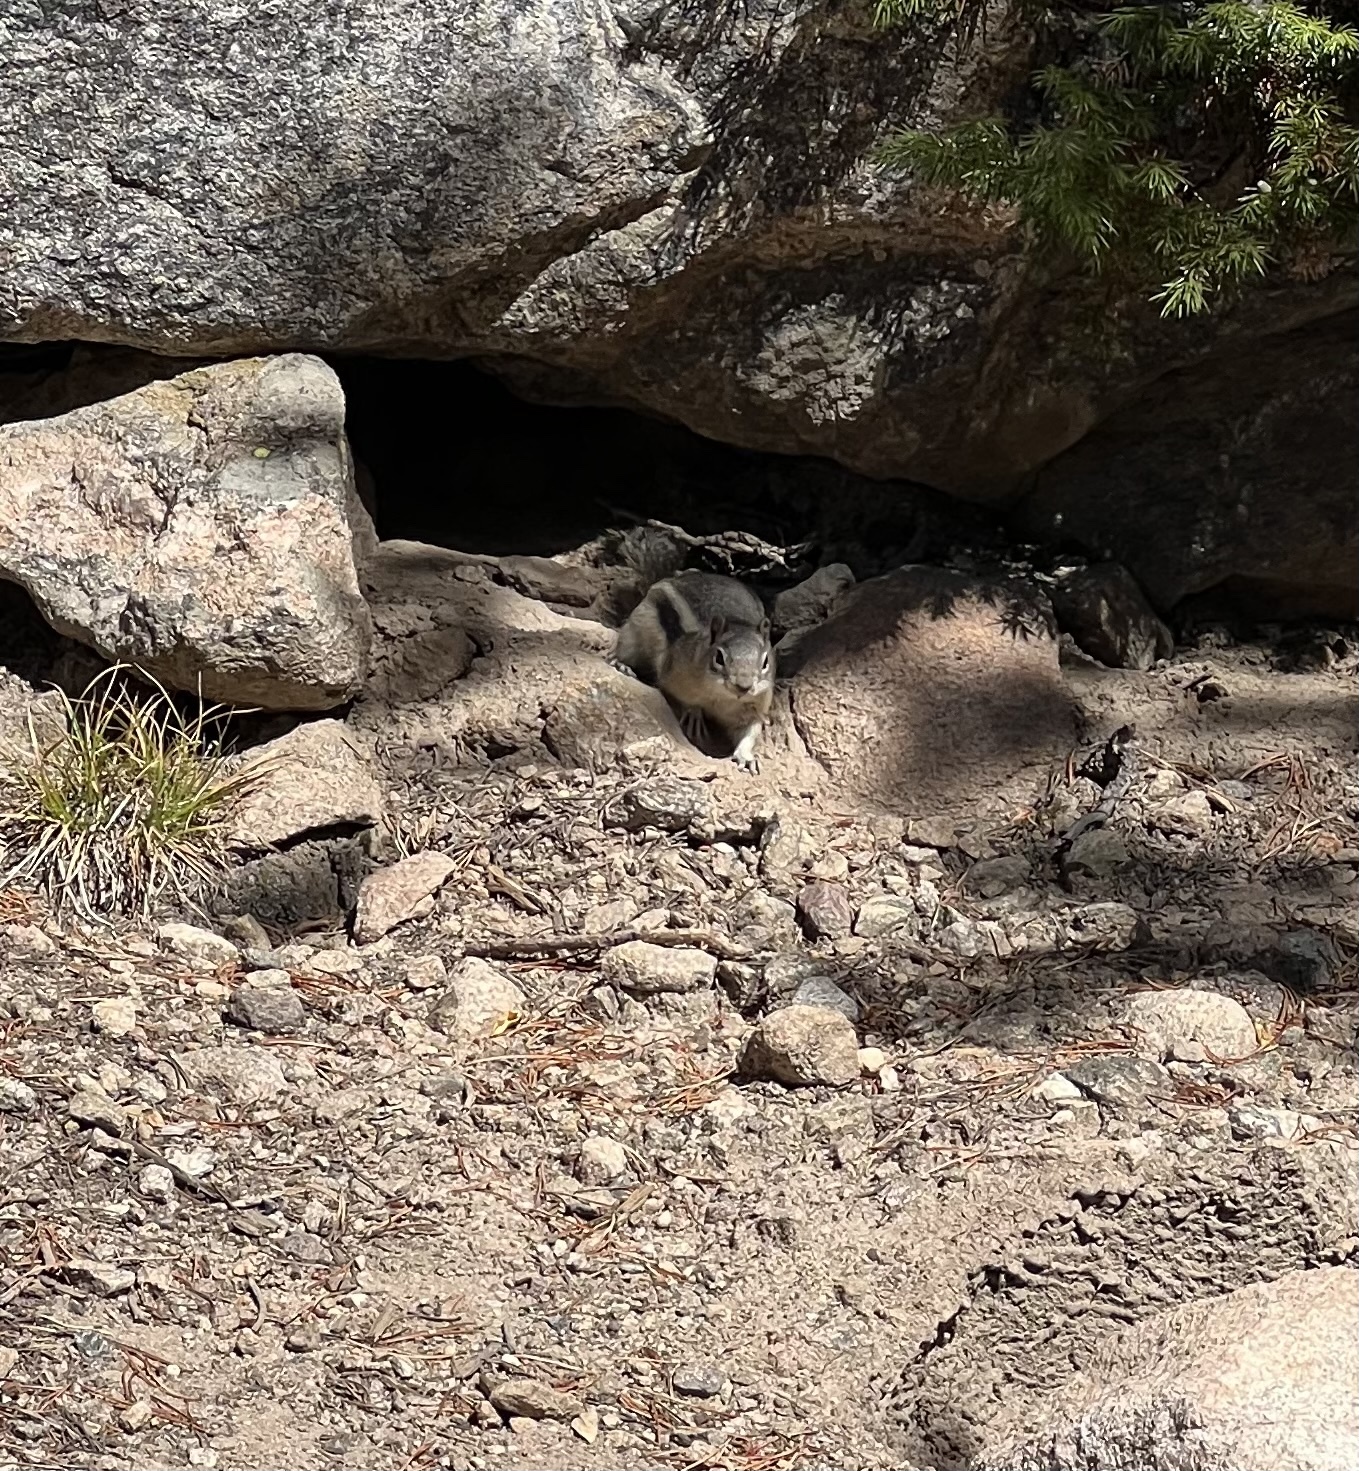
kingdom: Animalia
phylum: Chordata
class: Mammalia
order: Rodentia
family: Sciuridae
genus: Callospermophilus
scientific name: Callospermophilus lateralis
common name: Golden-mantled ground squirrel
